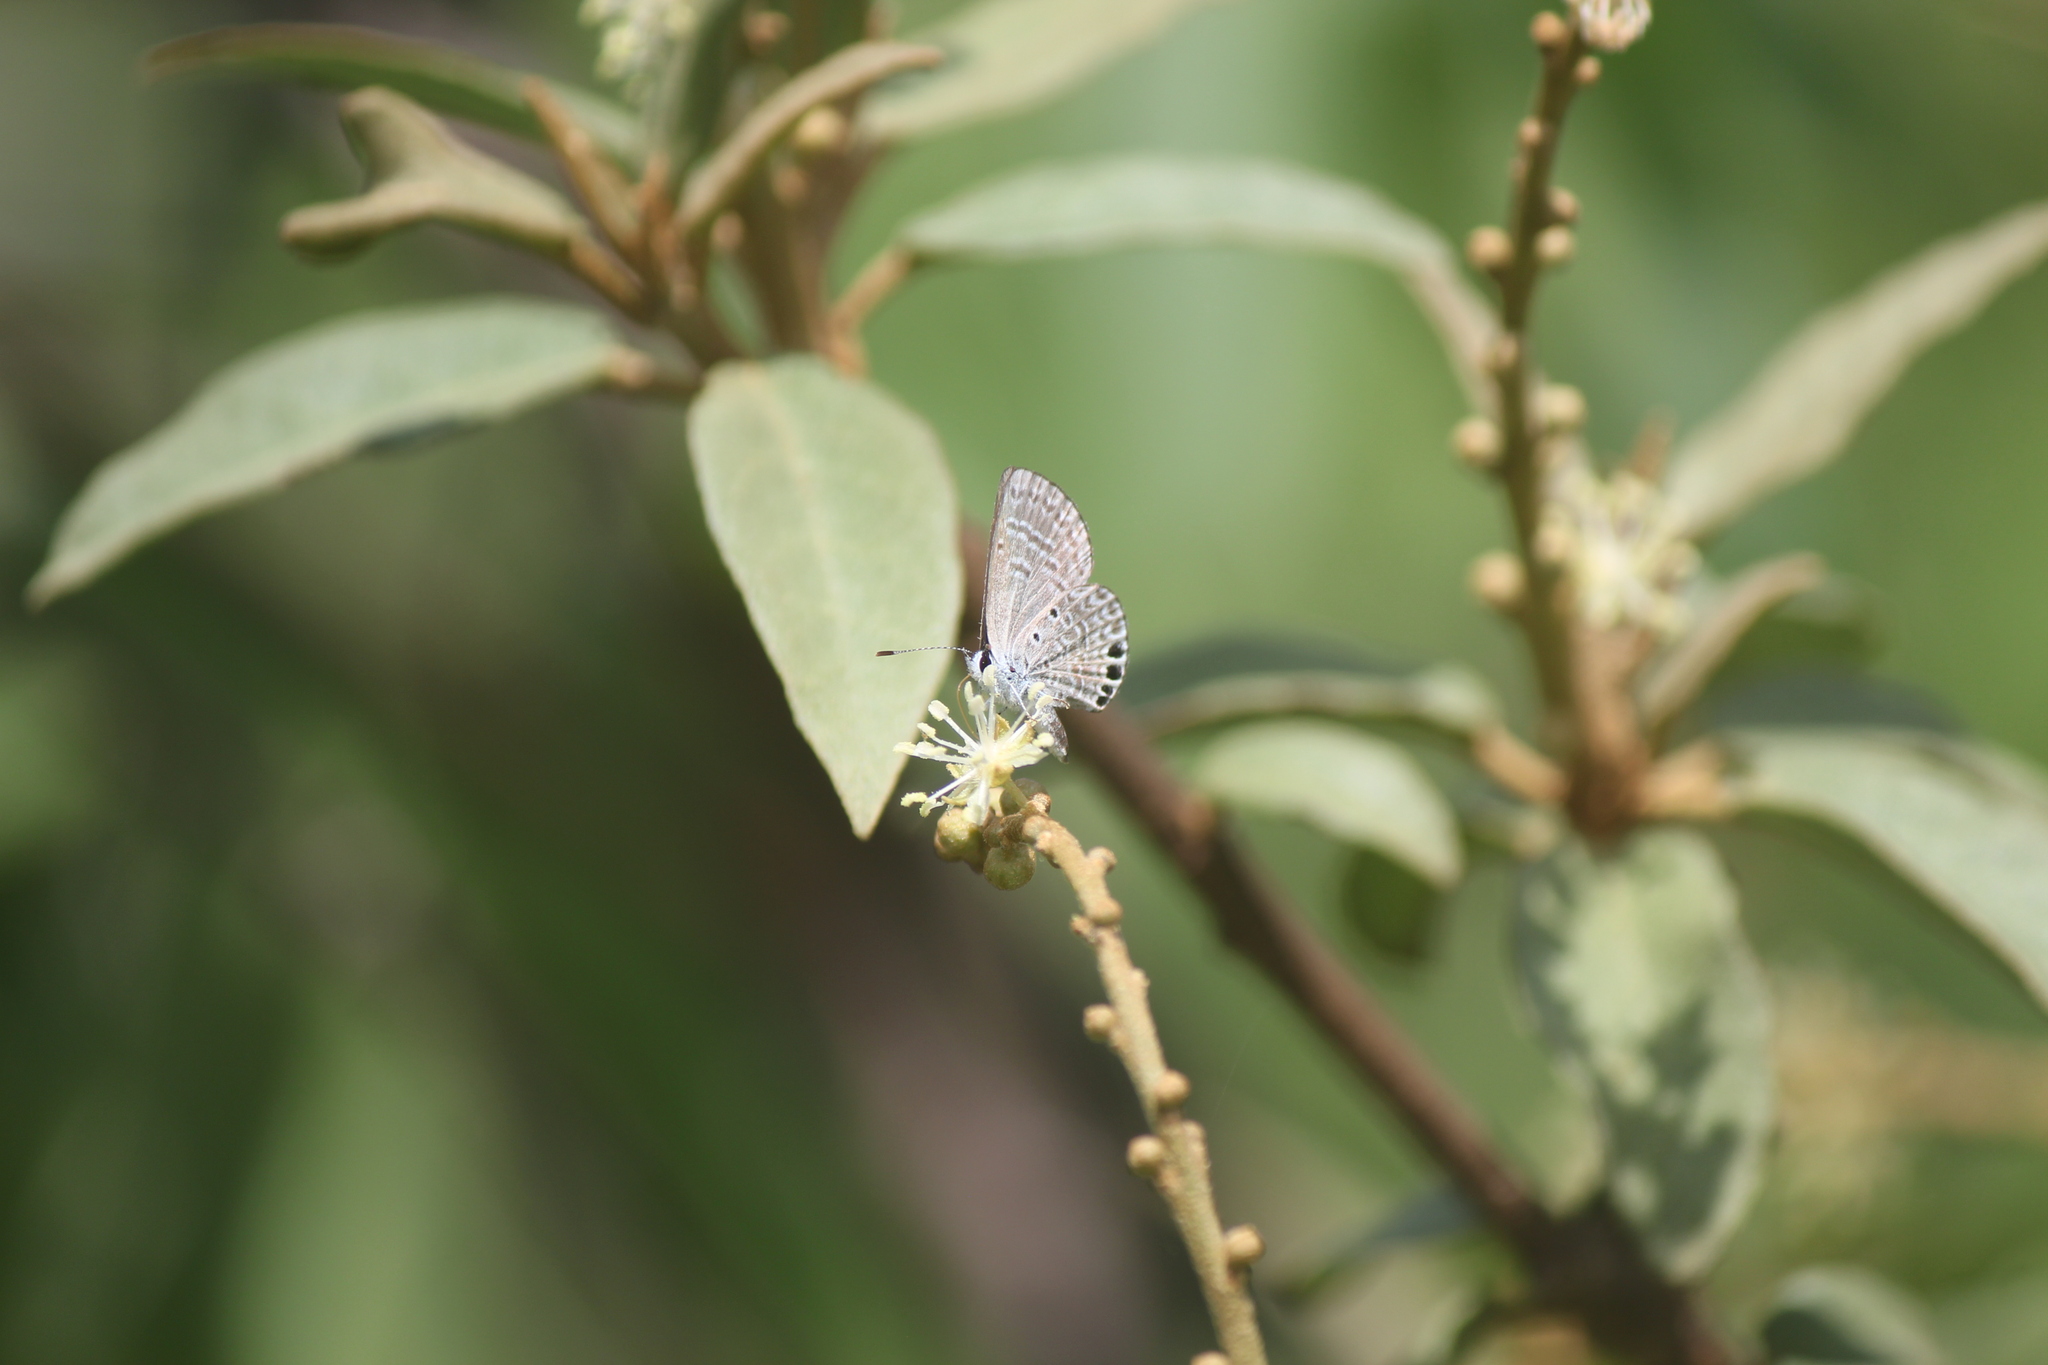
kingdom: Animalia
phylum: Arthropoda
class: Insecta
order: Lepidoptera
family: Lycaenidae
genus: Hemiargus
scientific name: Hemiargus ramon
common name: Ramon blue
